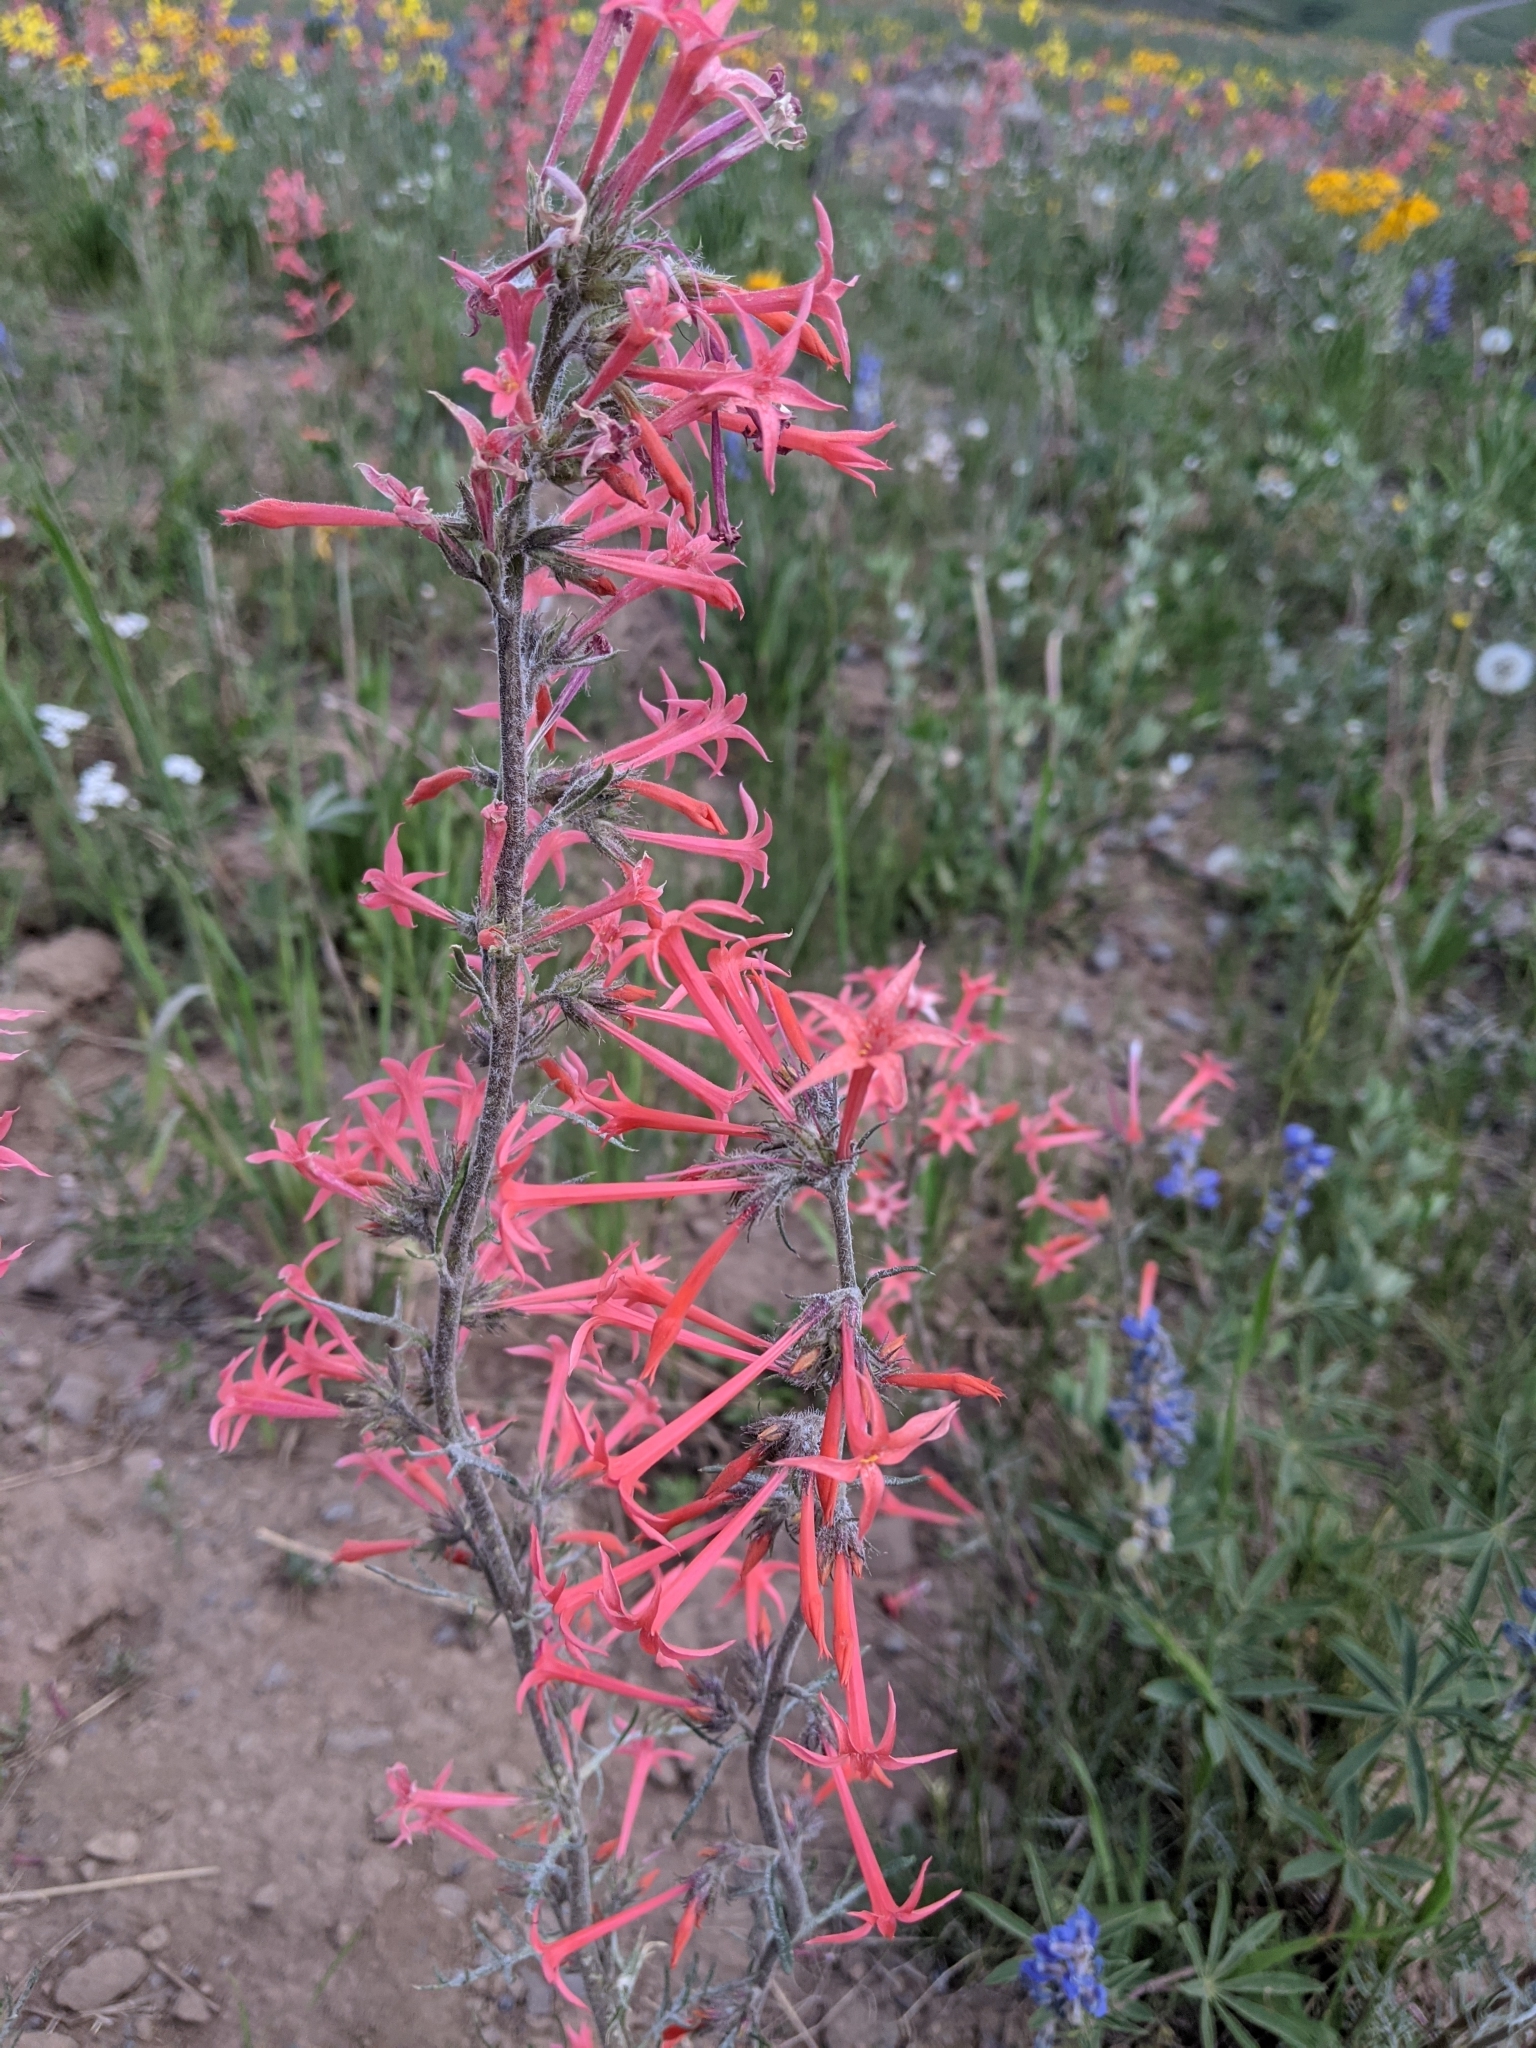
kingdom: Plantae
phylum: Tracheophyta
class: Magnoliopsida
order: Ericales
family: Polemoniaceae
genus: Ipomopsis
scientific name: Ipomopsis aggregata
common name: Scarlet gilia
